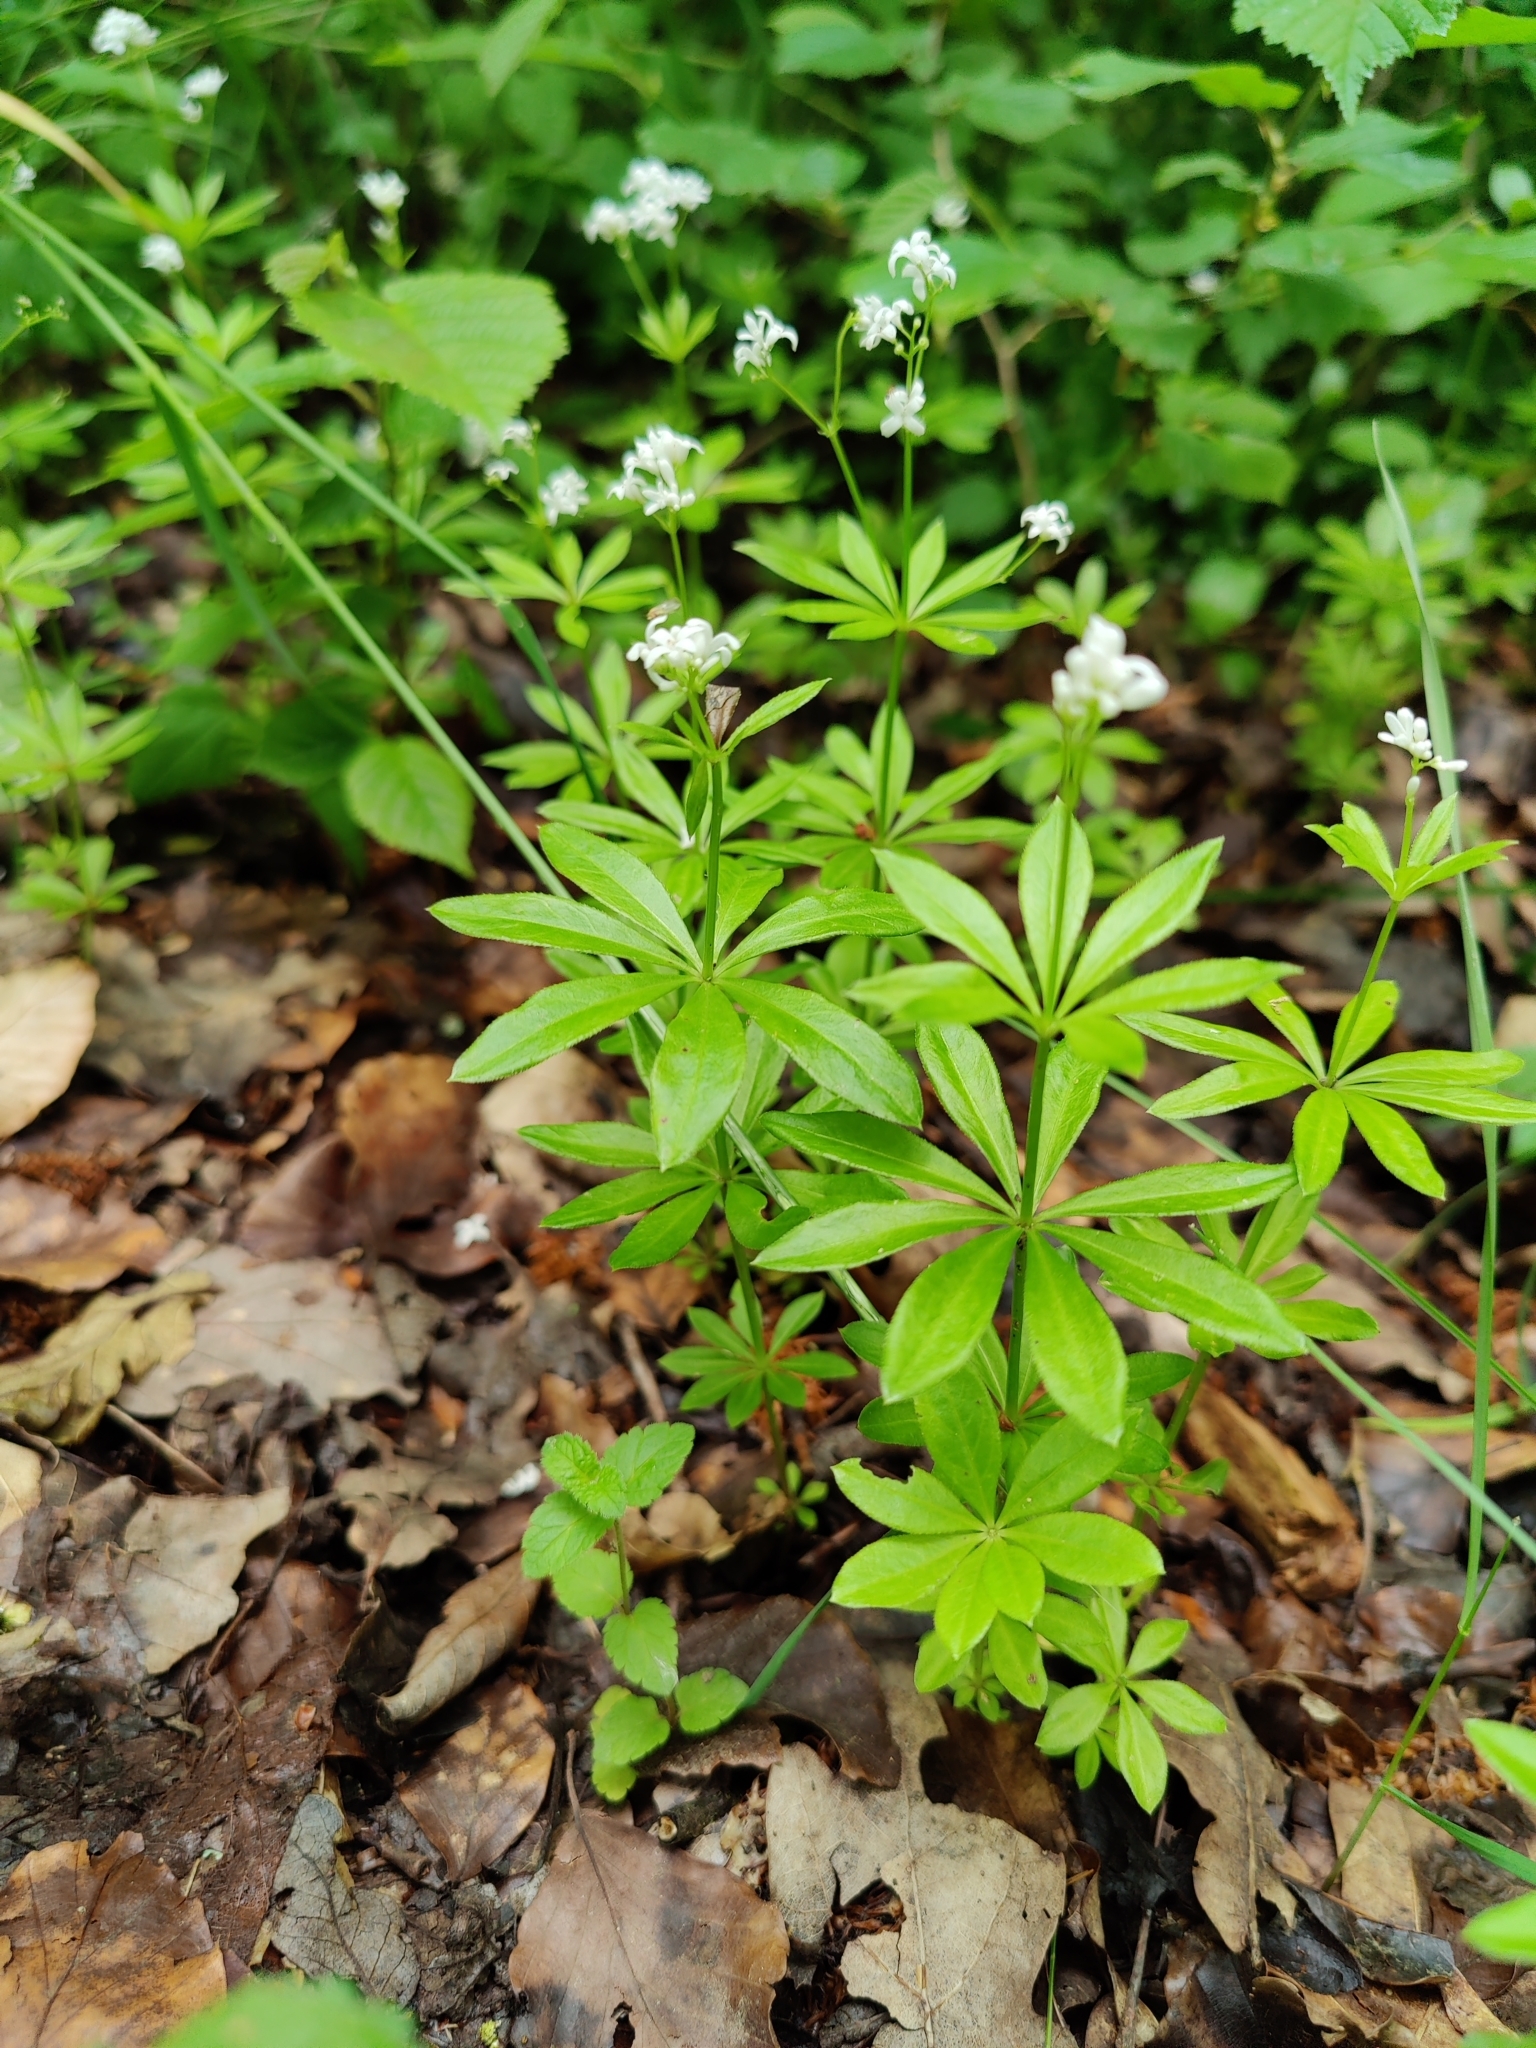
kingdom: Plantae
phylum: Tracheophyta
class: Magnoliopsida
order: Gentianales
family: Rubiaceae
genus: Galium
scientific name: Galium odoratum
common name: Sweet woodruff
